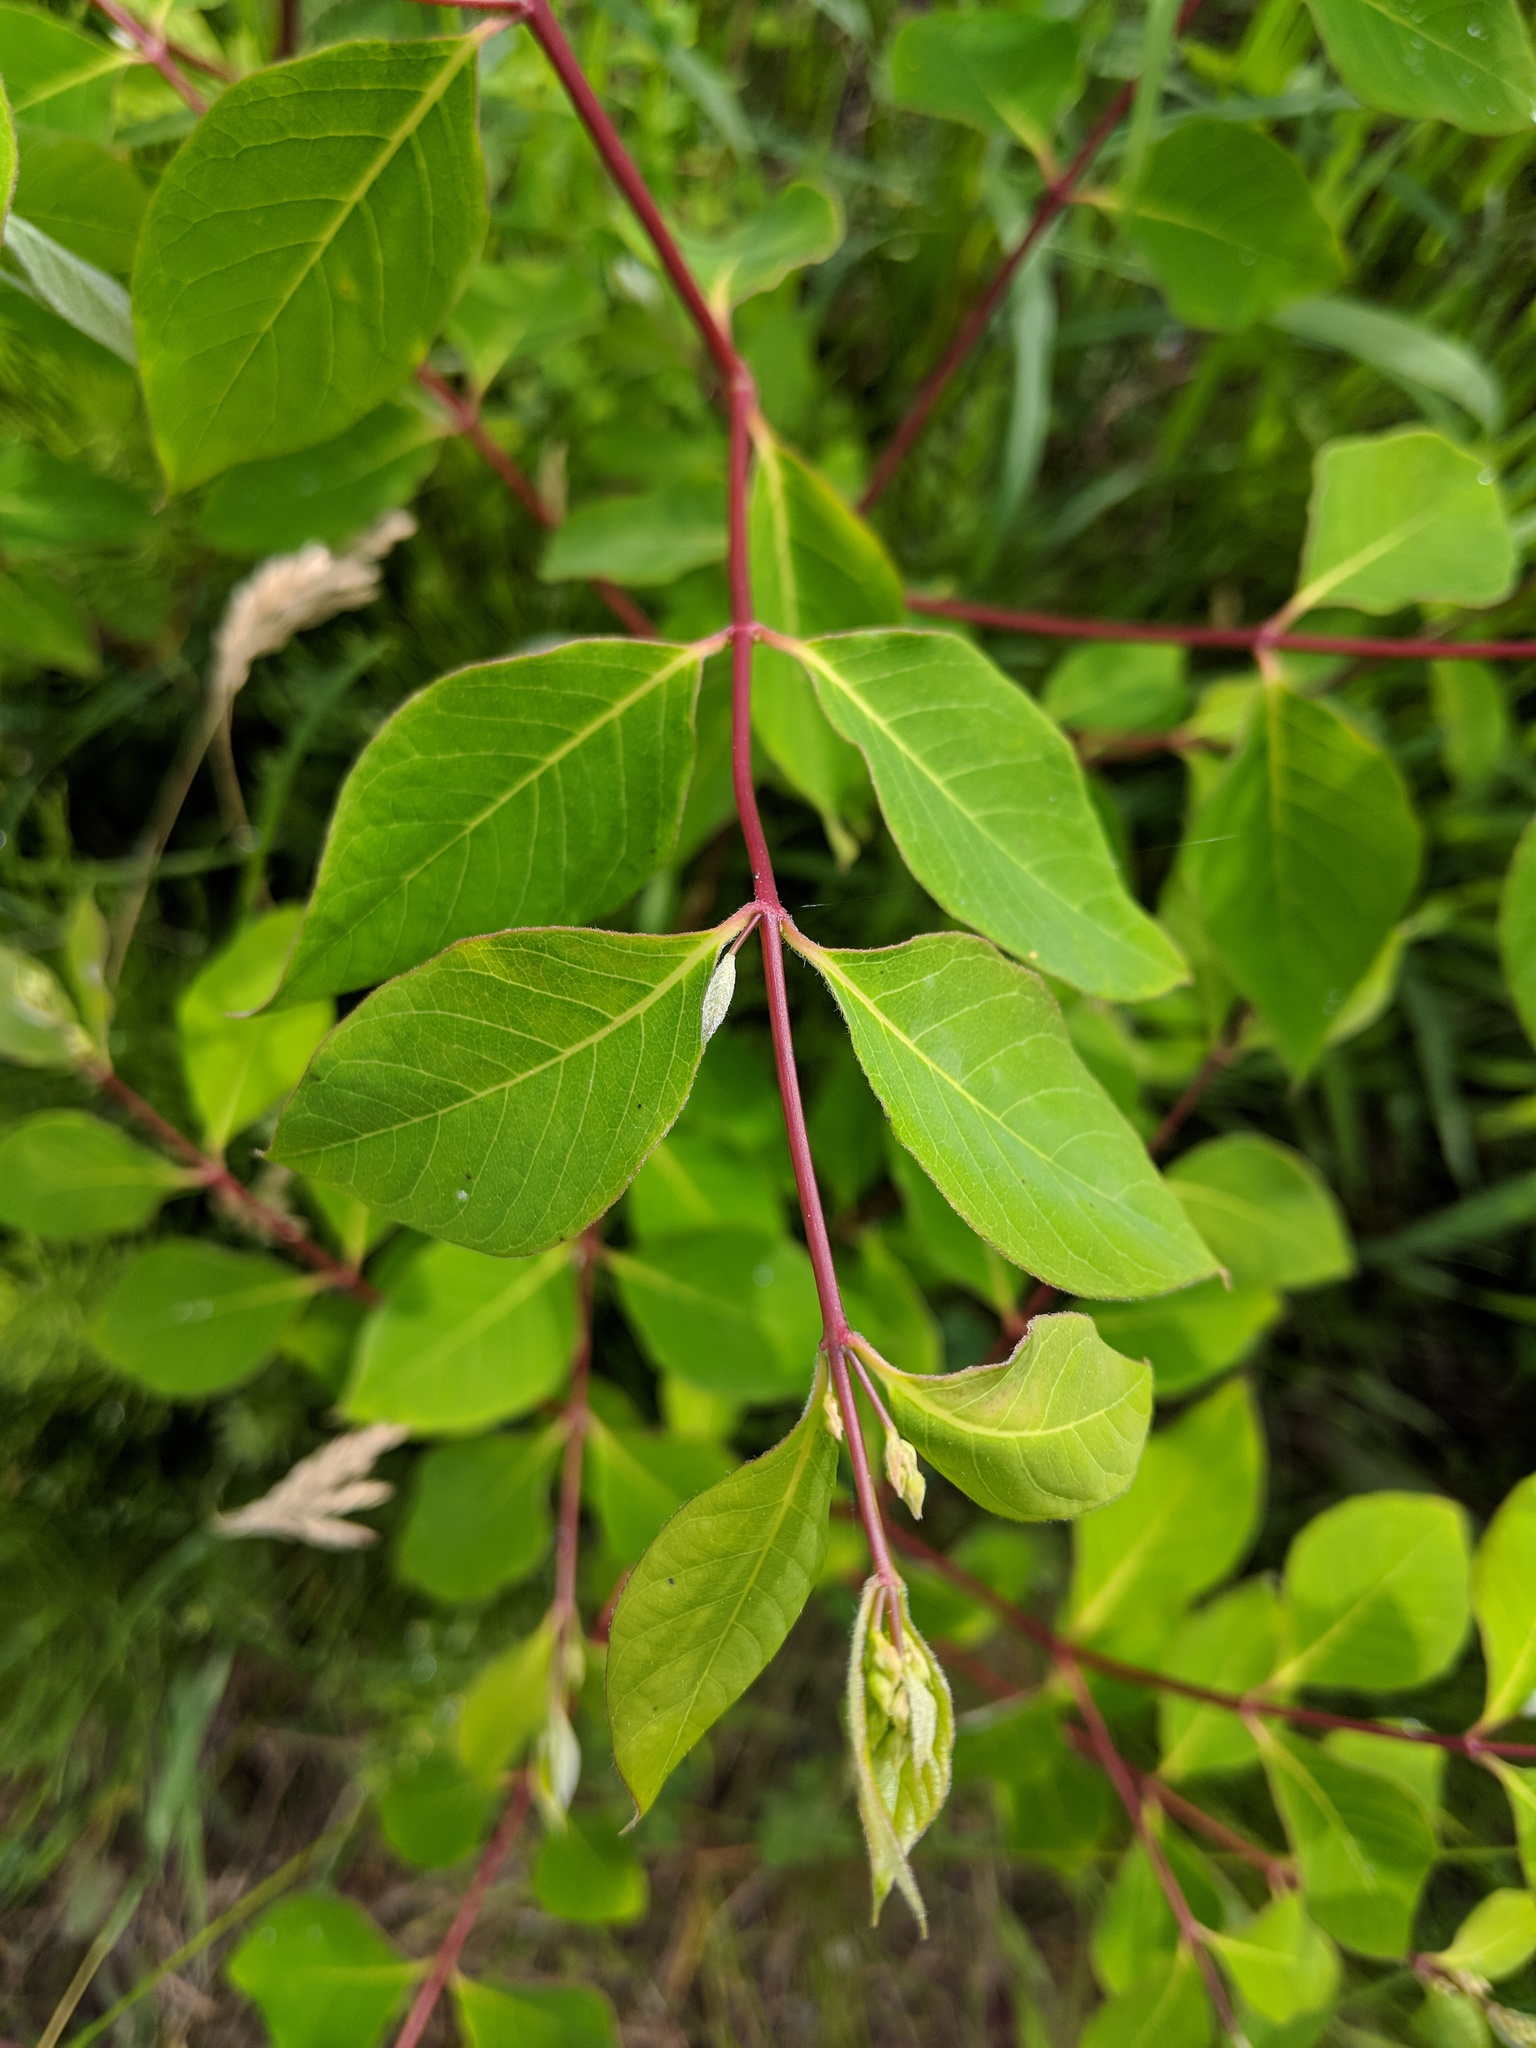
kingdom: Plantae
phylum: Tracheophyta
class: Magnoliopsida
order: Gentianales
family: Apocynaceae
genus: Apocynum
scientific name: Apocynum androsaemifolium
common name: Spreading dogbane
